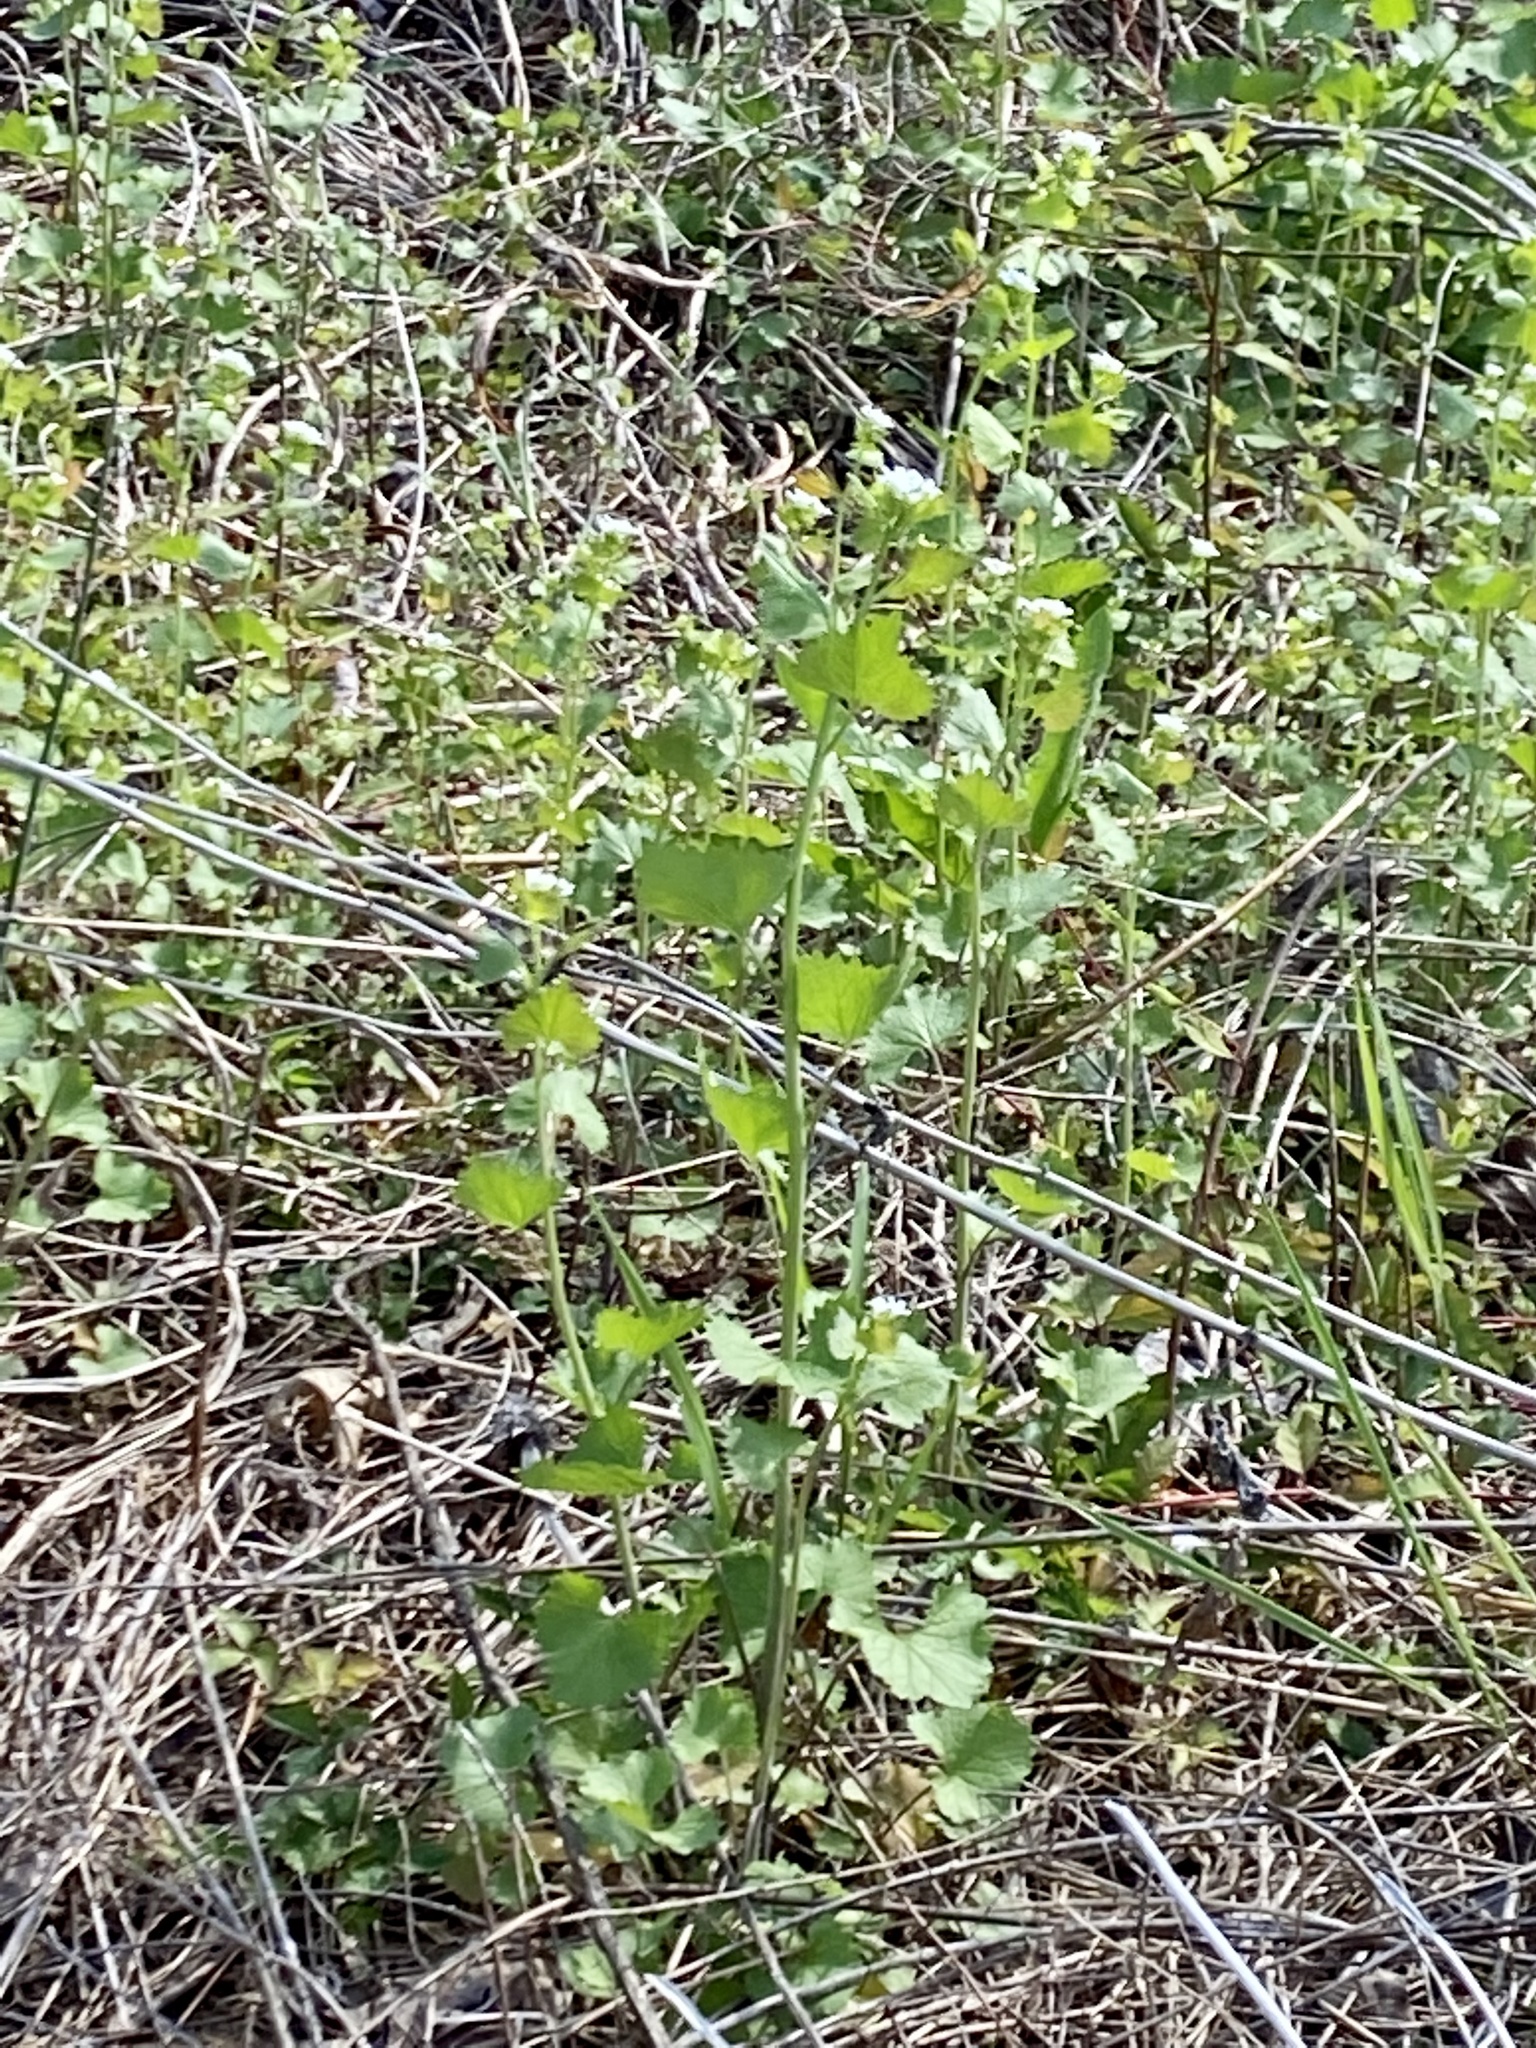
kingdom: Plantae
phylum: Tracheophyta
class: Magnoliopsida
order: Brassicales
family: Brassicaceae
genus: Alliaria
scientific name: Alliaria petiolata
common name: Garlic mustard
